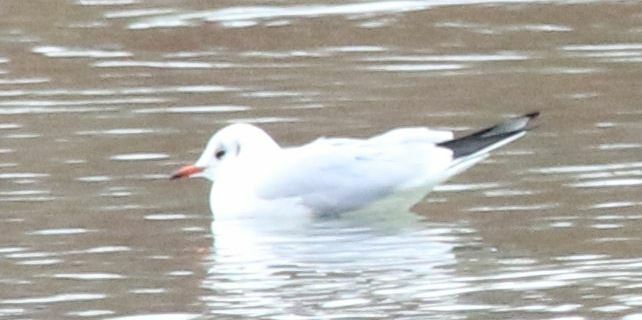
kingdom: Animalia
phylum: Chordata
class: Aves
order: Charadriiformes
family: Laridae
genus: Chroicocephalus
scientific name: Chroicocephalus ridibundus
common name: Black-headed gull
